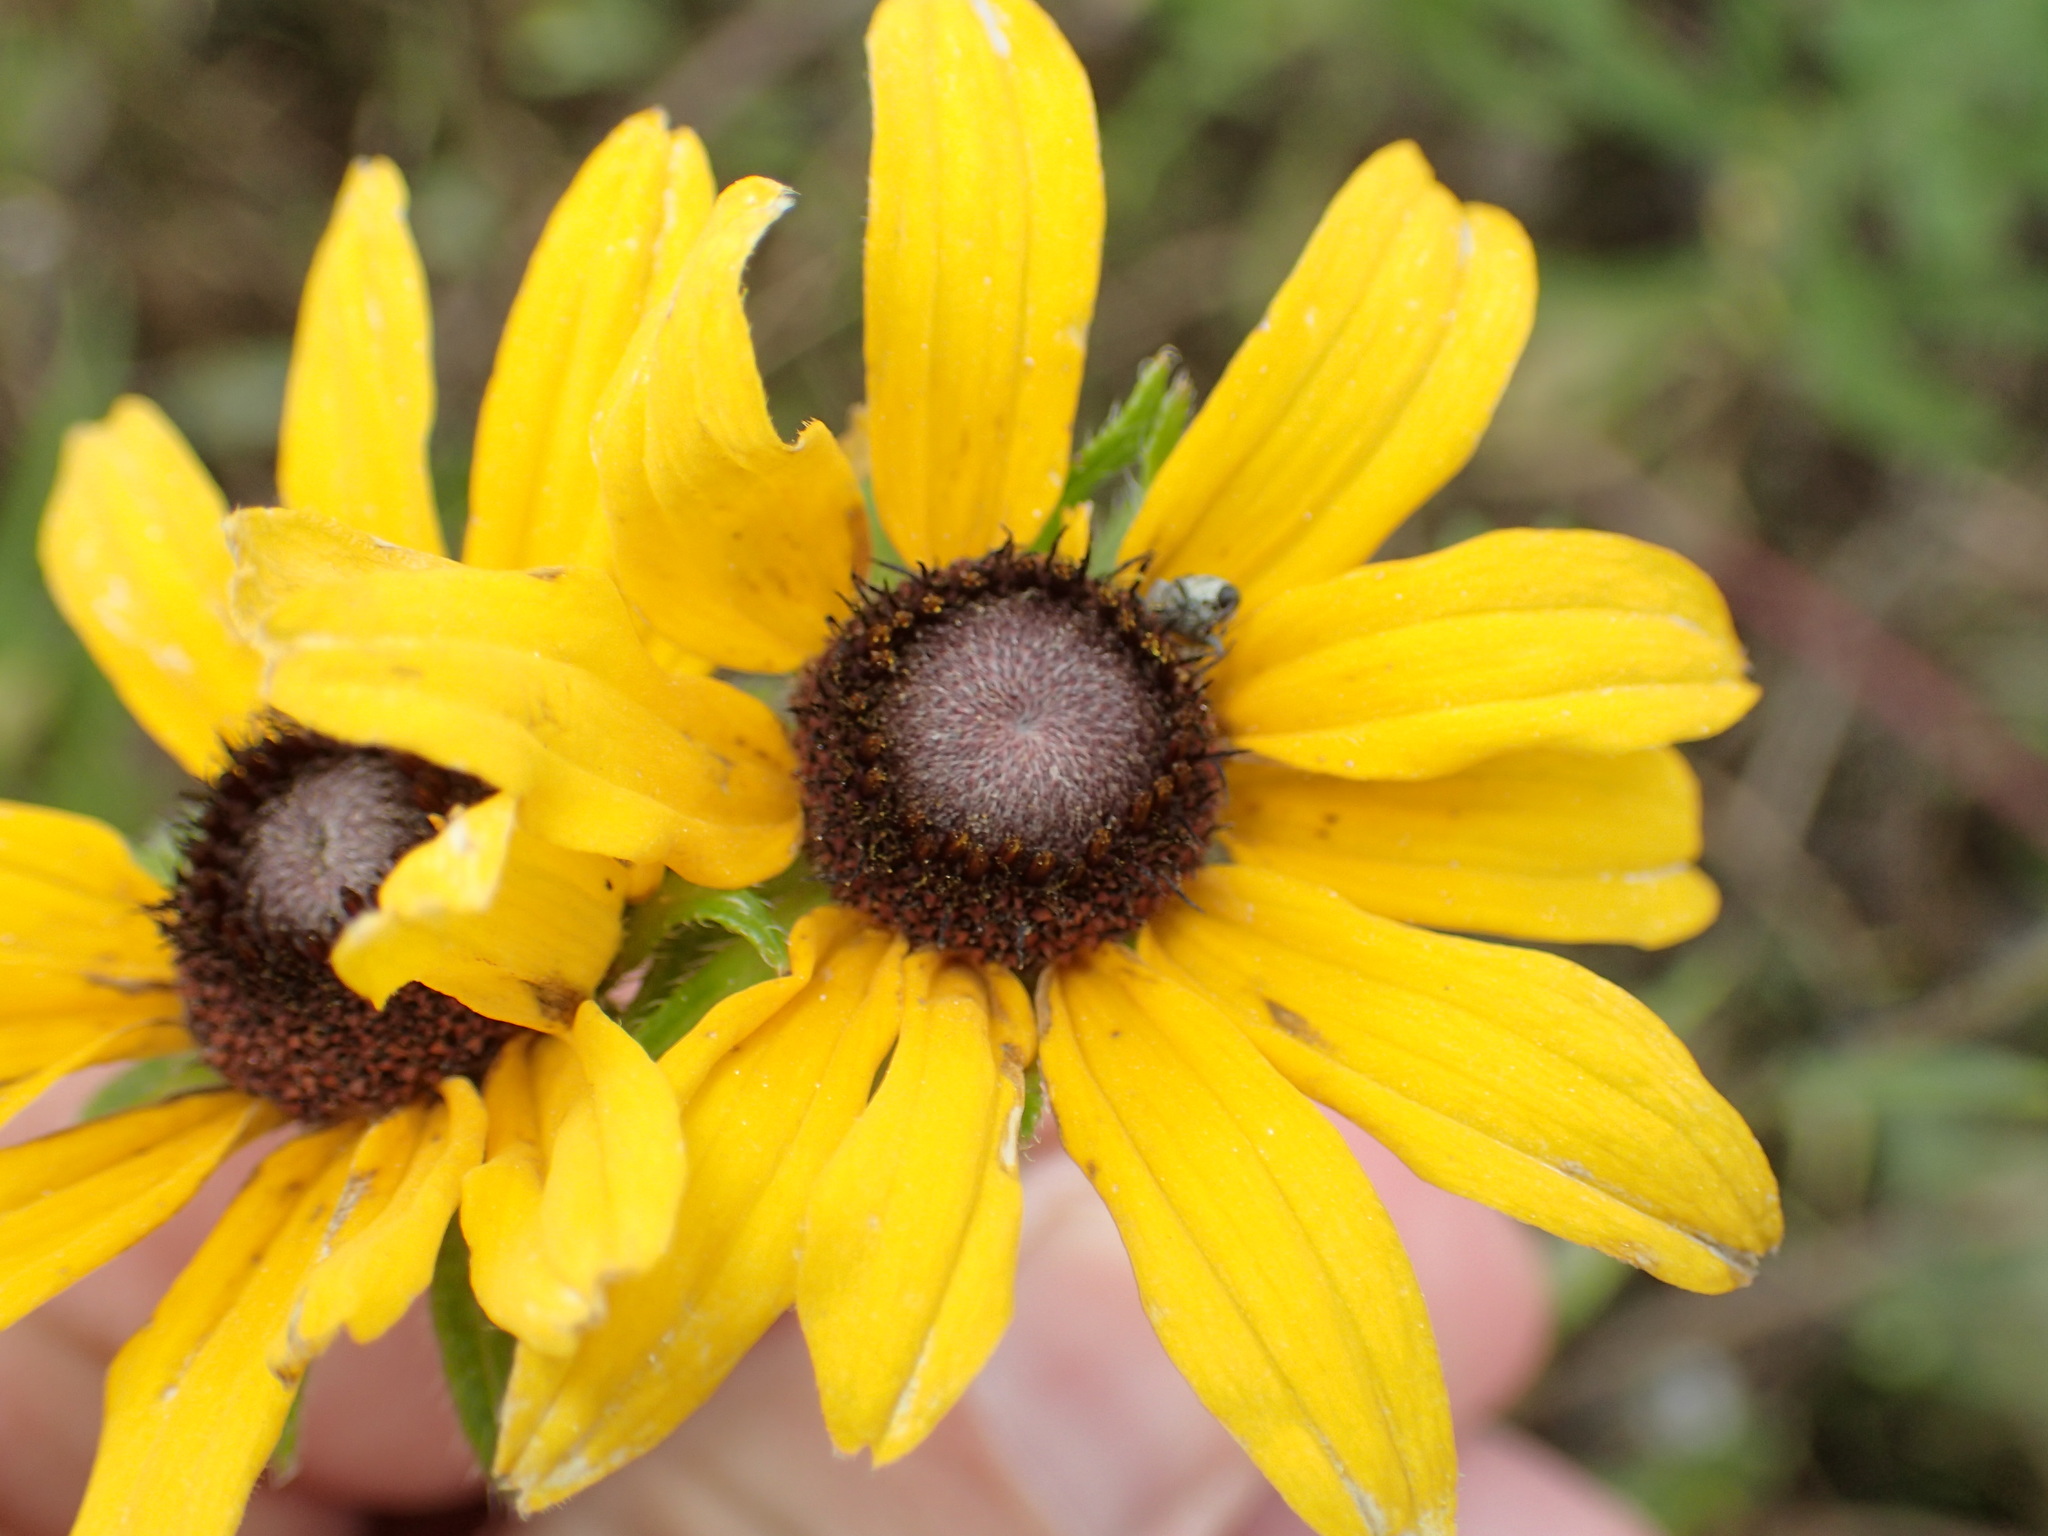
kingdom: Plantae
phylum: Tracheophyta
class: Magnoliopsida
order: Asterales
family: Asteraceae
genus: Rudbeckia
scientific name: Rudbeckia hirta
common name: Black-eyed-susan
